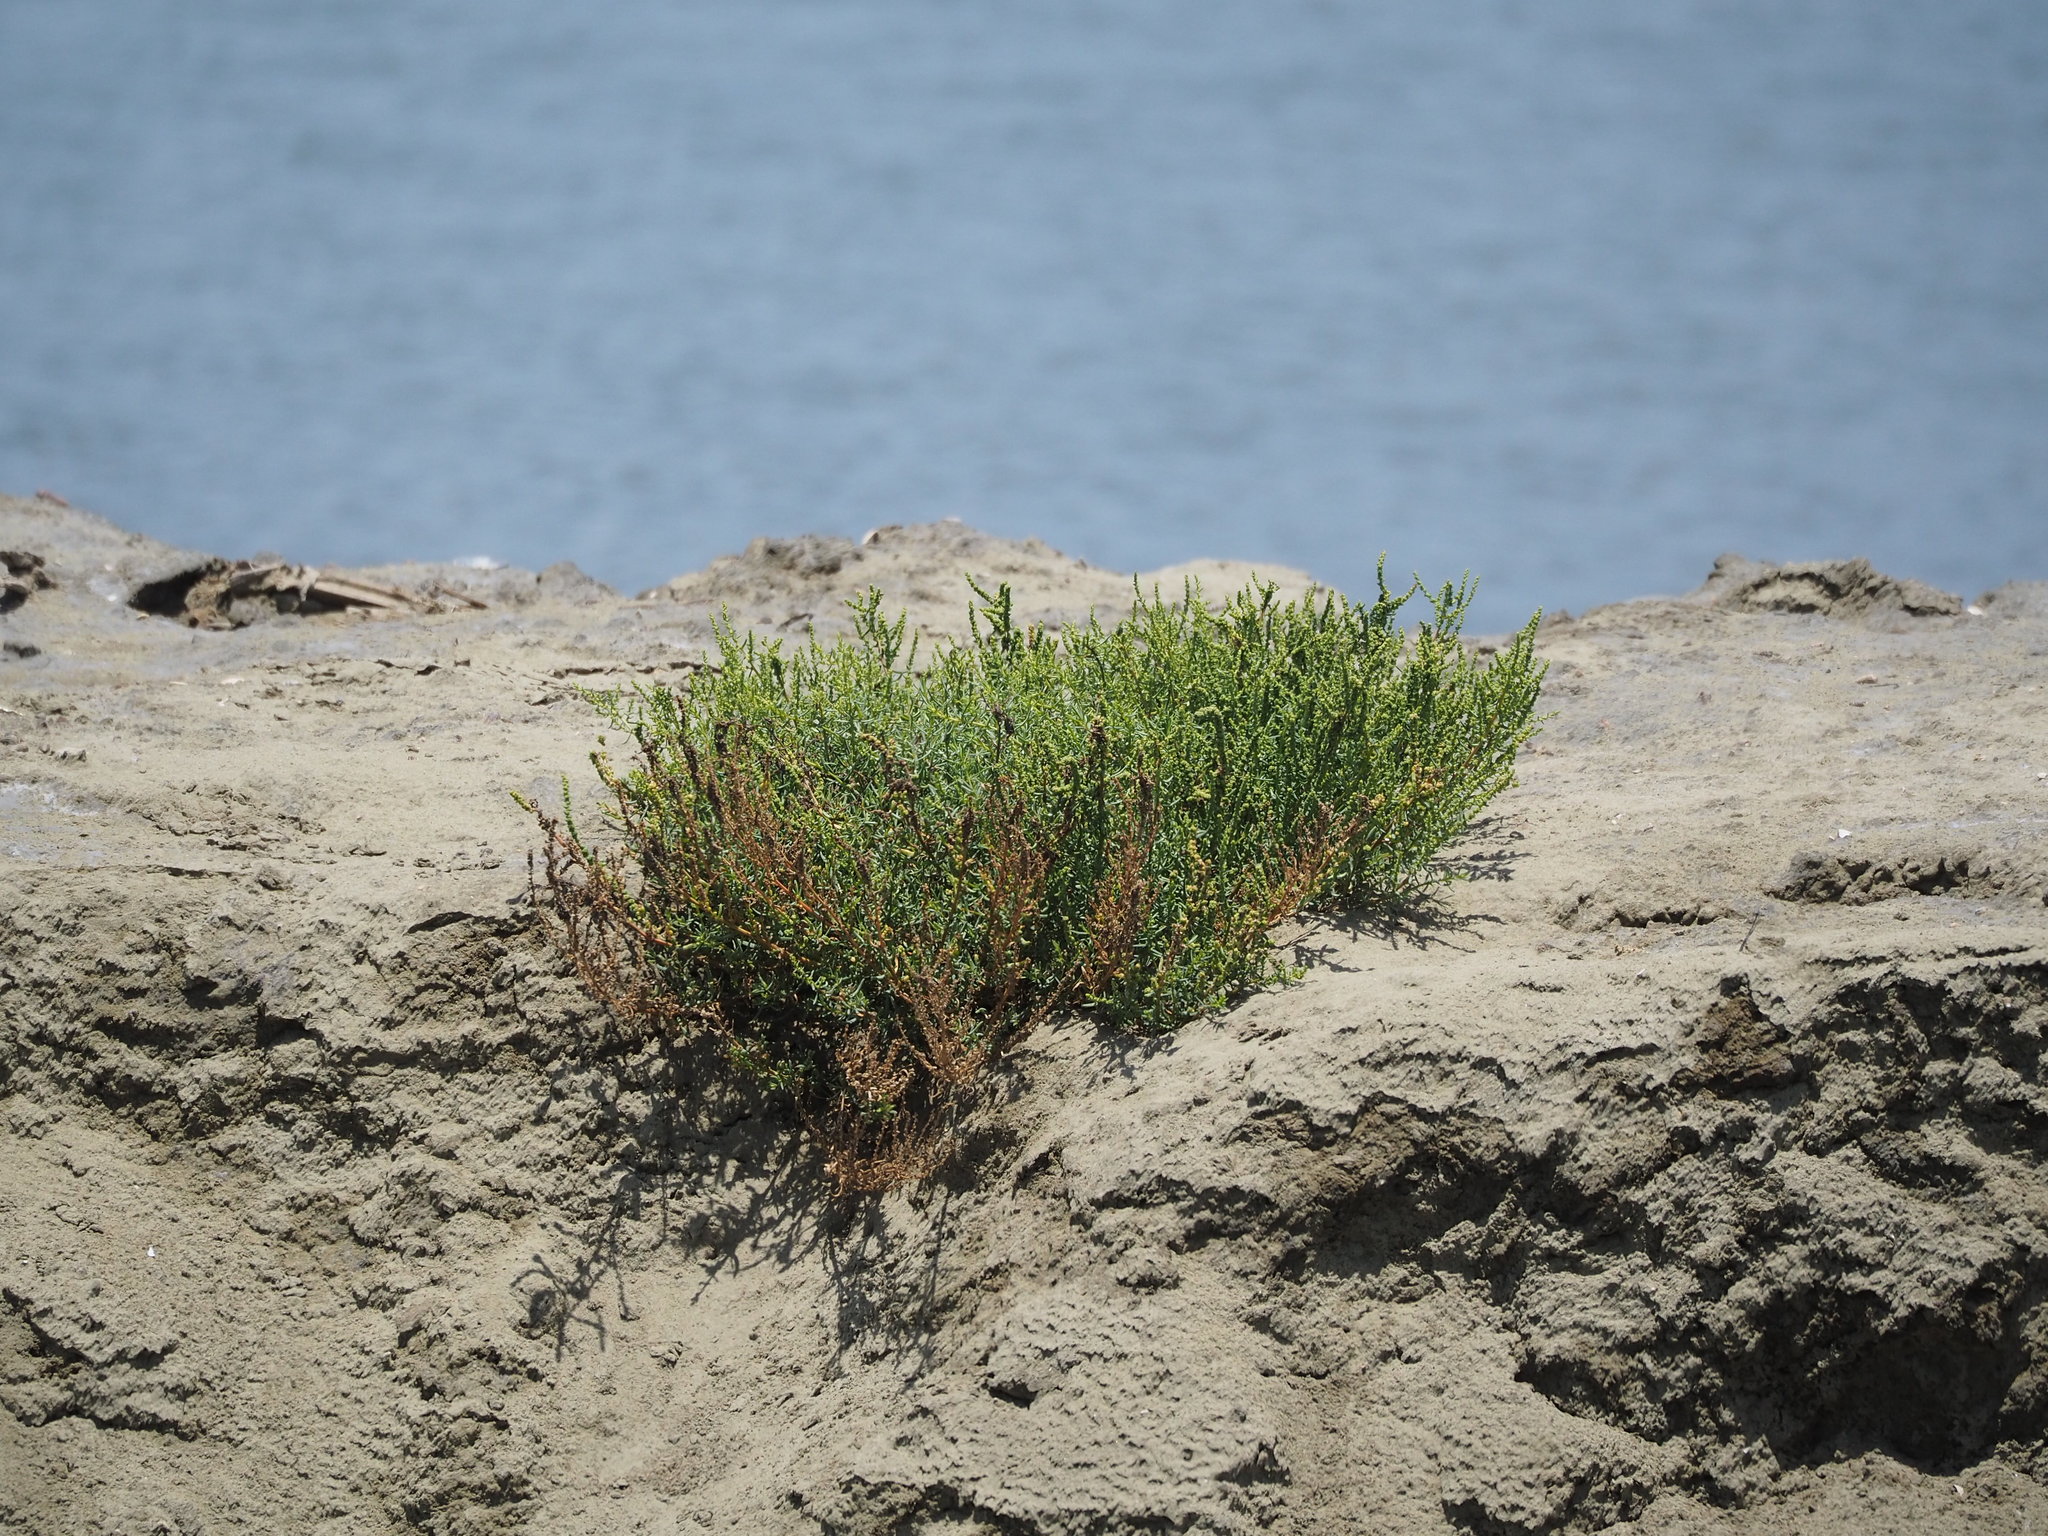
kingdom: Plantae
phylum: Tracheophyta
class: Magnoliopsida
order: Caryophyllales
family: Amaranthaceae
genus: Suaeda
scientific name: Suaeda maritima
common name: Annual sea-blite
